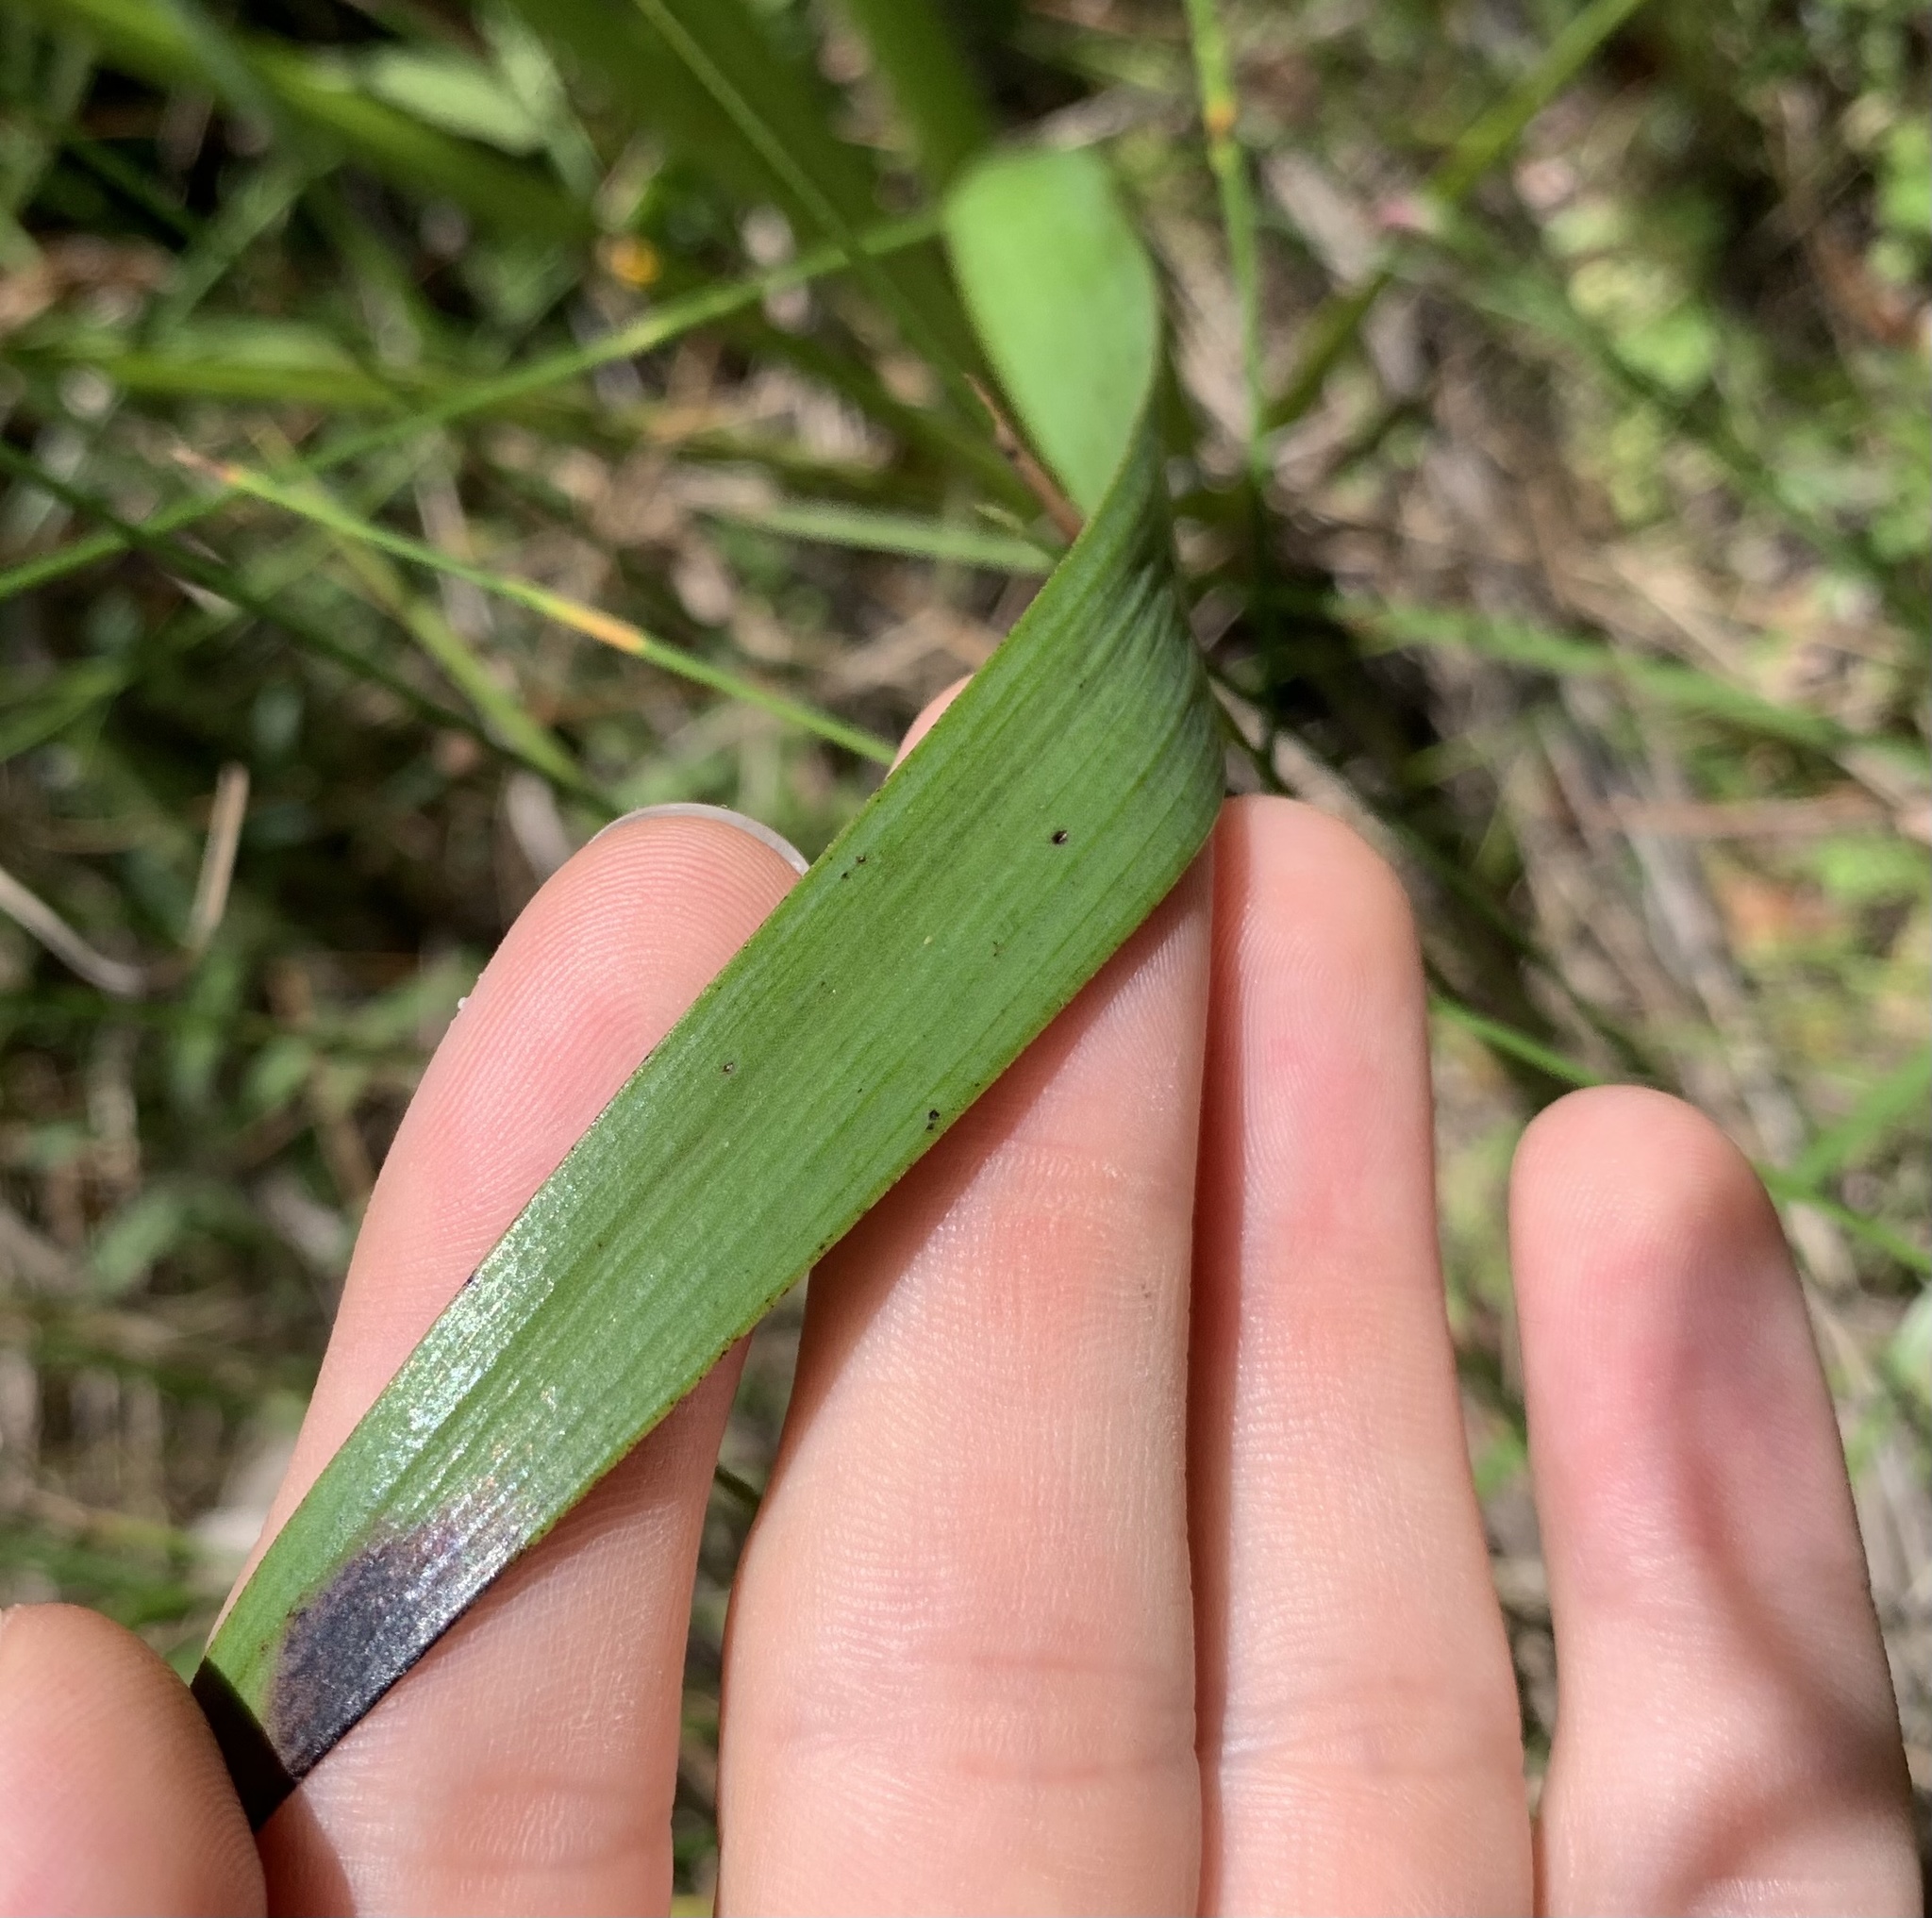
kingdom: Plantae
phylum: Tracheophyta
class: Liliopsida
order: Commelinales
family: Haemodoraceae
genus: Lachnanthes
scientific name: Lachnanthes caroliana
